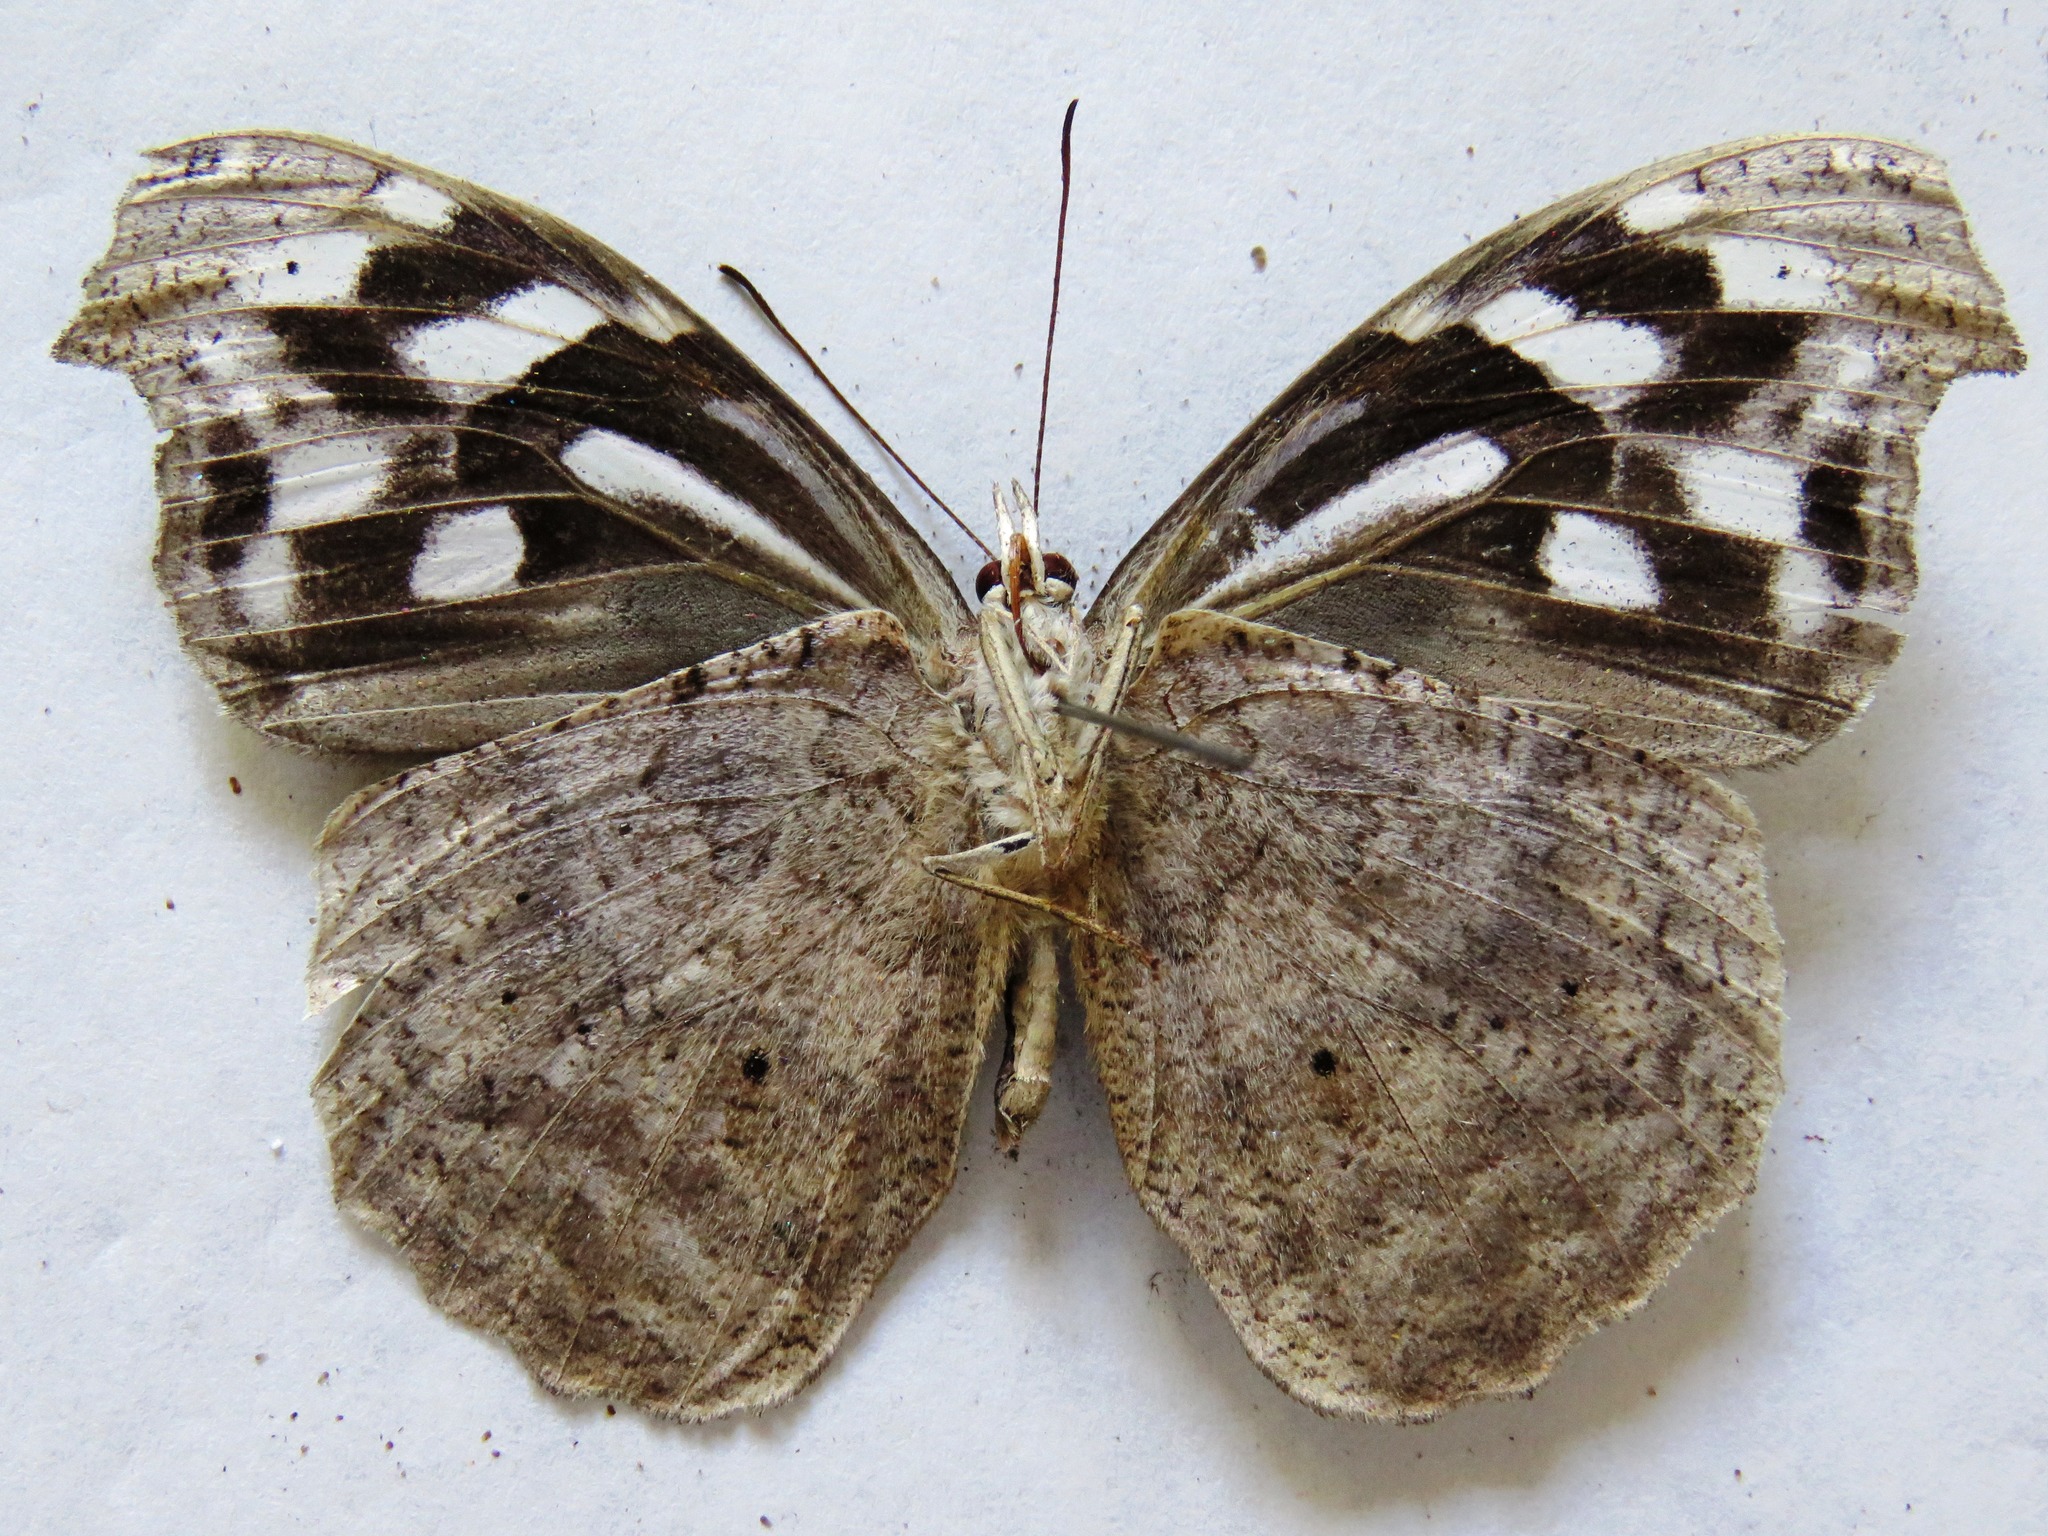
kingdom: Animalia
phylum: Arthropoda
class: Insecta
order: Lepidoptera
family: Nymphalidae
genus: Myscelia
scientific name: Myscelia cyaniris
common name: Whitened bluewing
